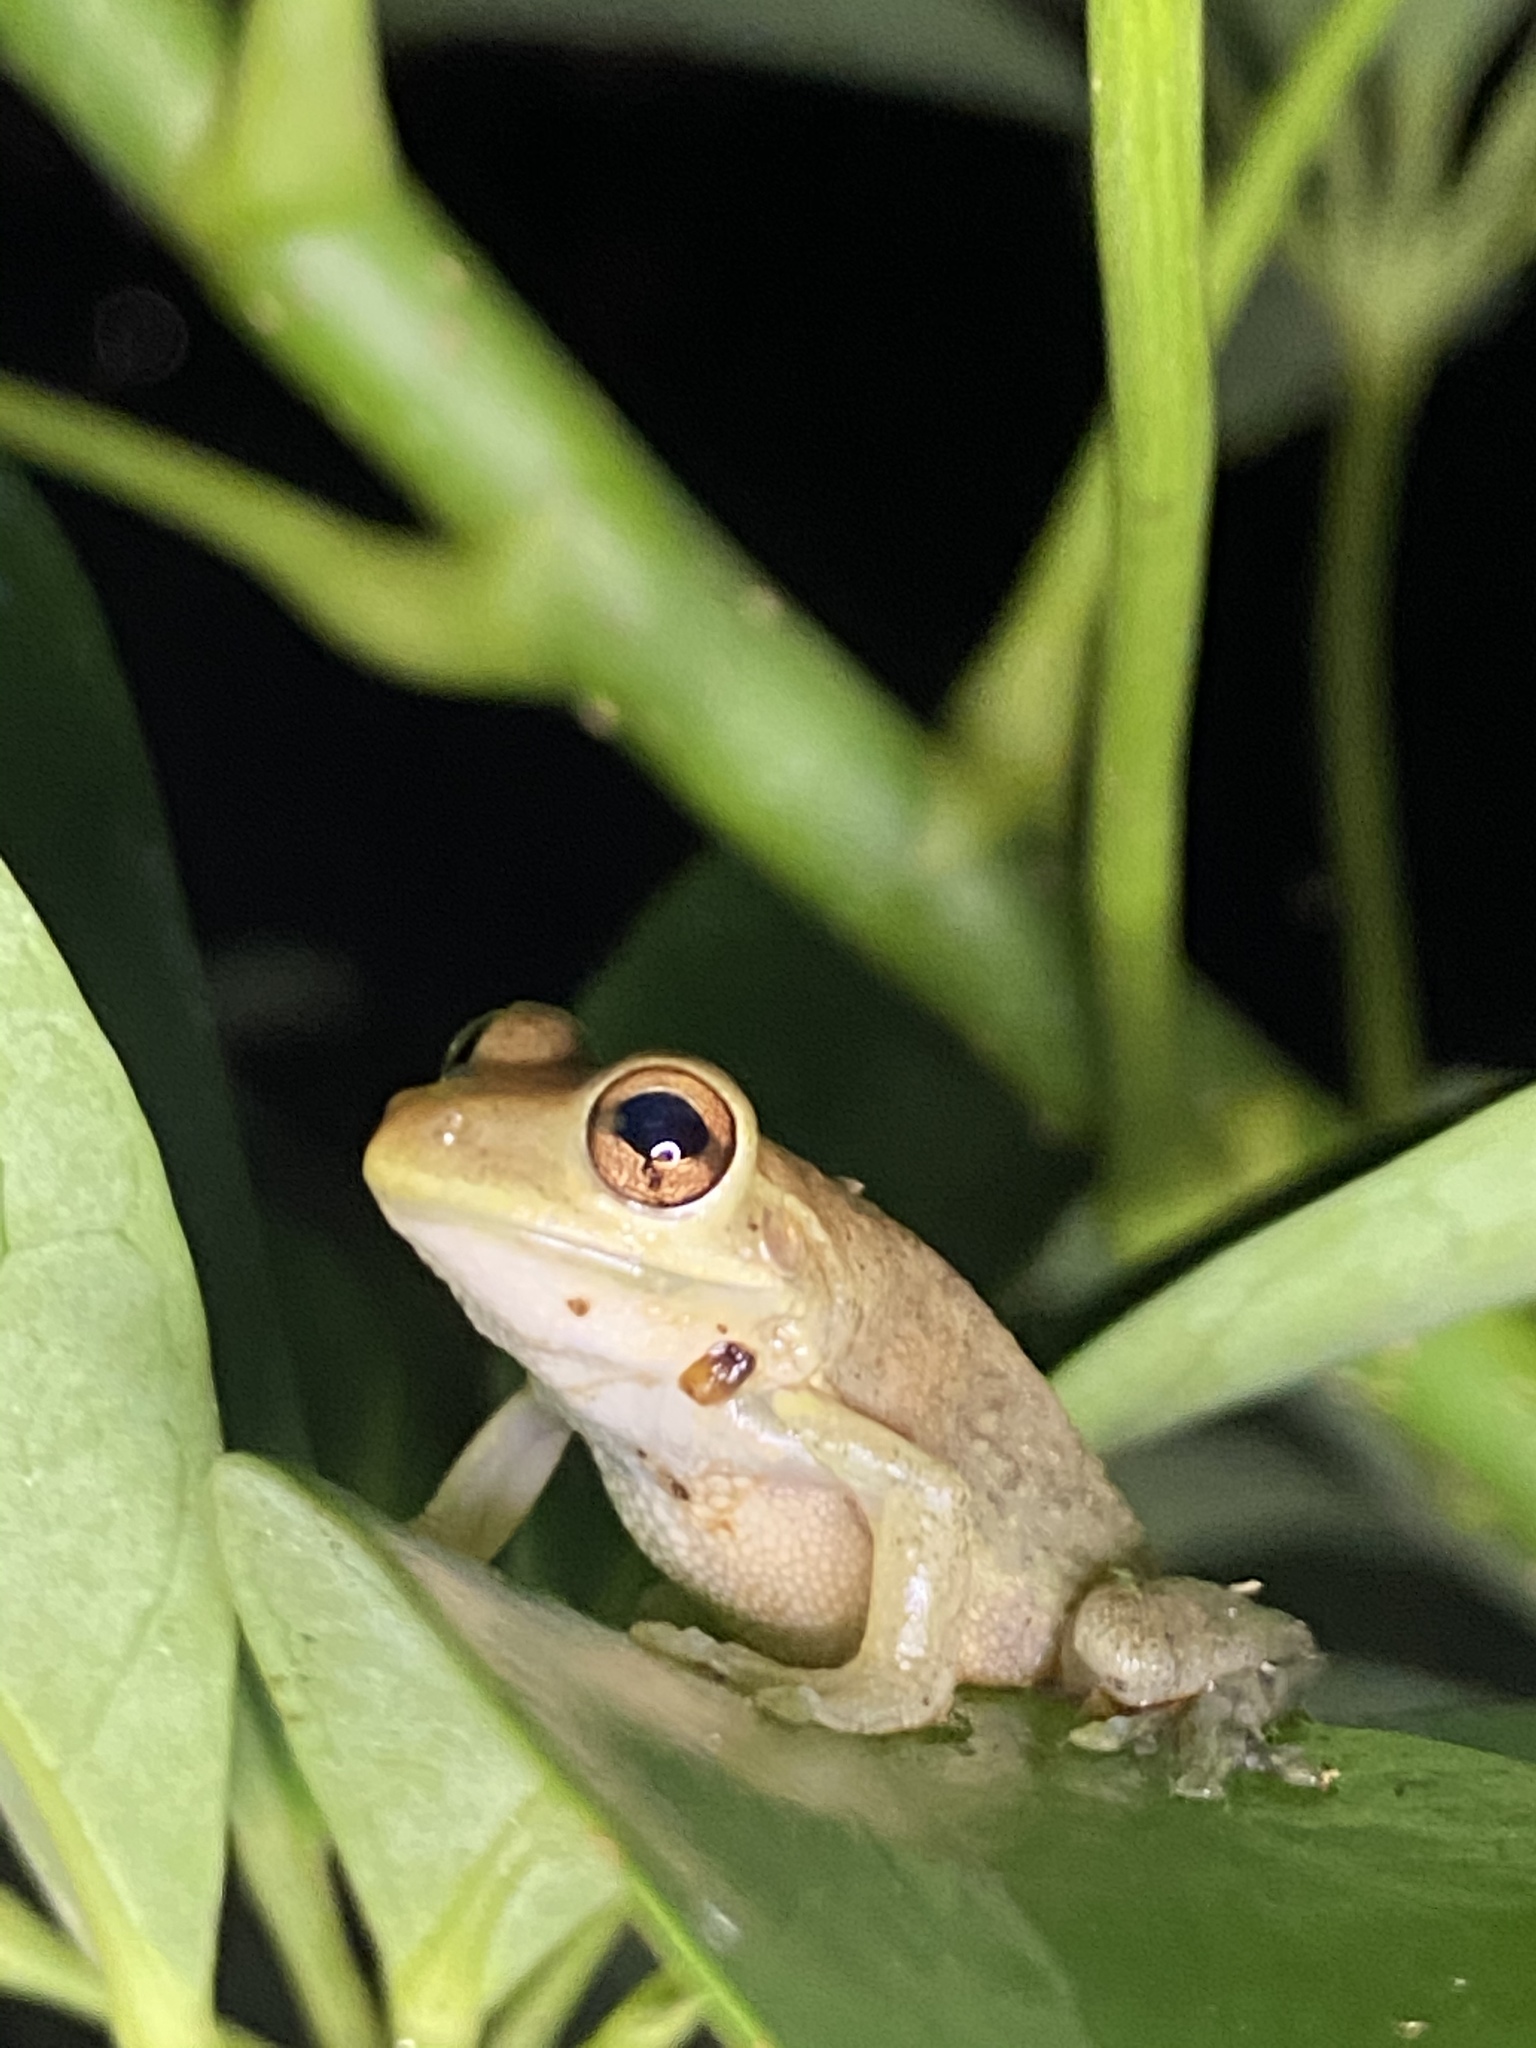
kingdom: Animalia
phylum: Chordata
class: Amphibia
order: Anura
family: Hylidae
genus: Osteopilus
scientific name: Osteopilus septentrionalis
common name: Cuban treefrog
